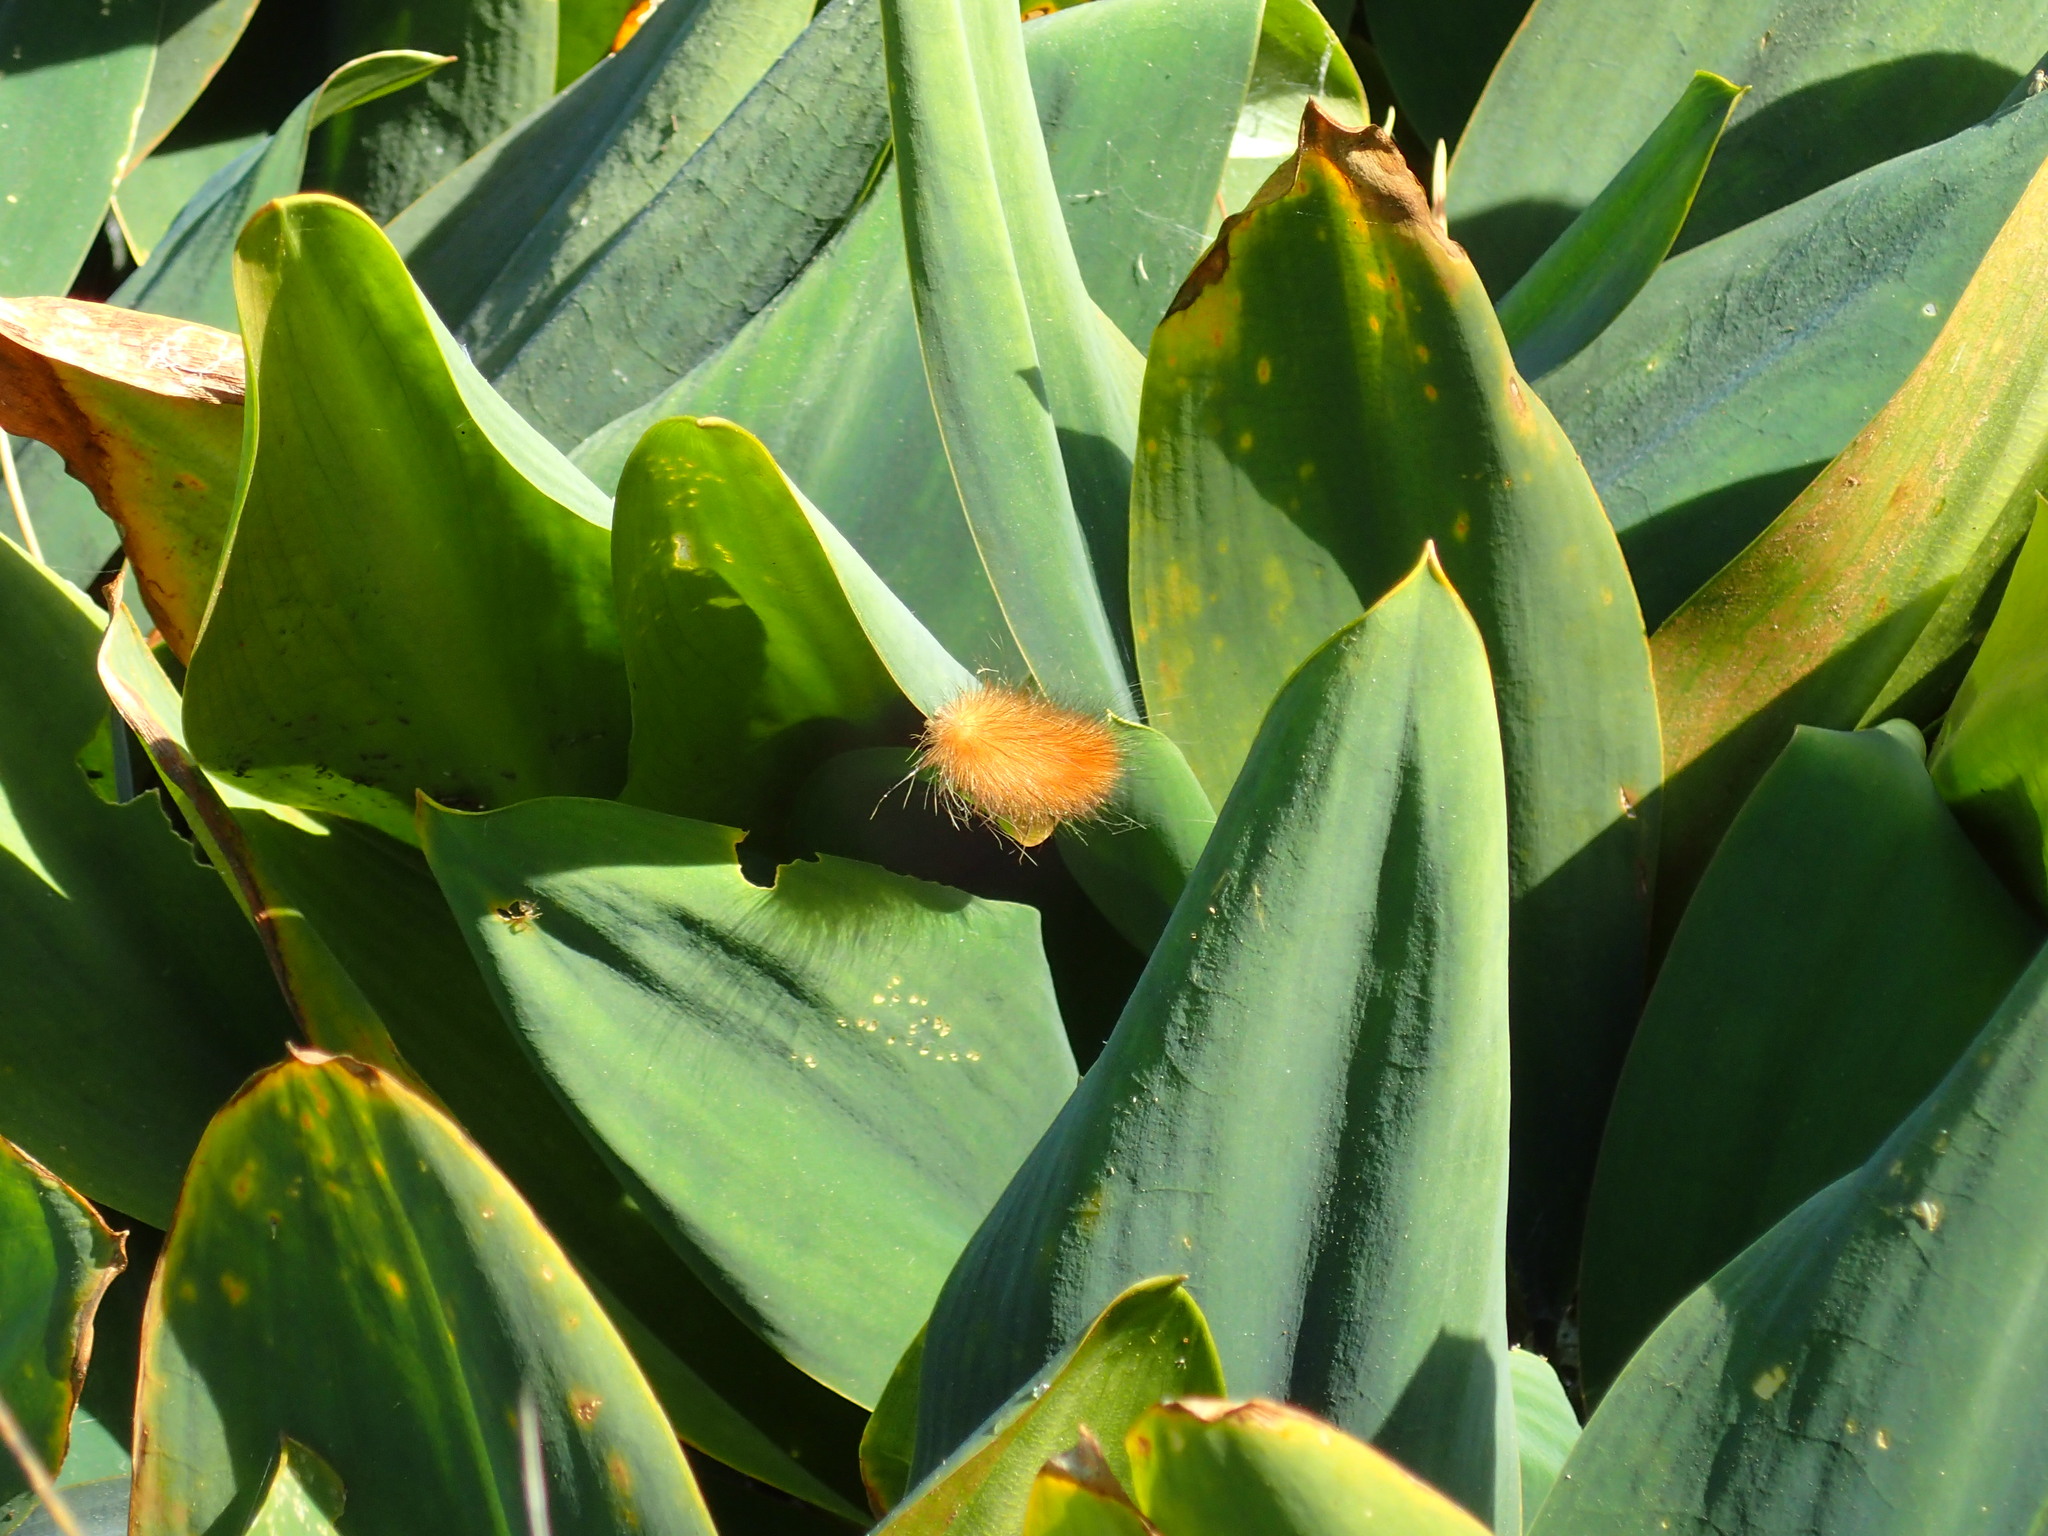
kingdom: Animalia
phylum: Arthropoda
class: Insecta
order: Lepidoptera
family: Erebidae
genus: Spilosoma
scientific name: Spilosoma virginica
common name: Virginia tiger moth
